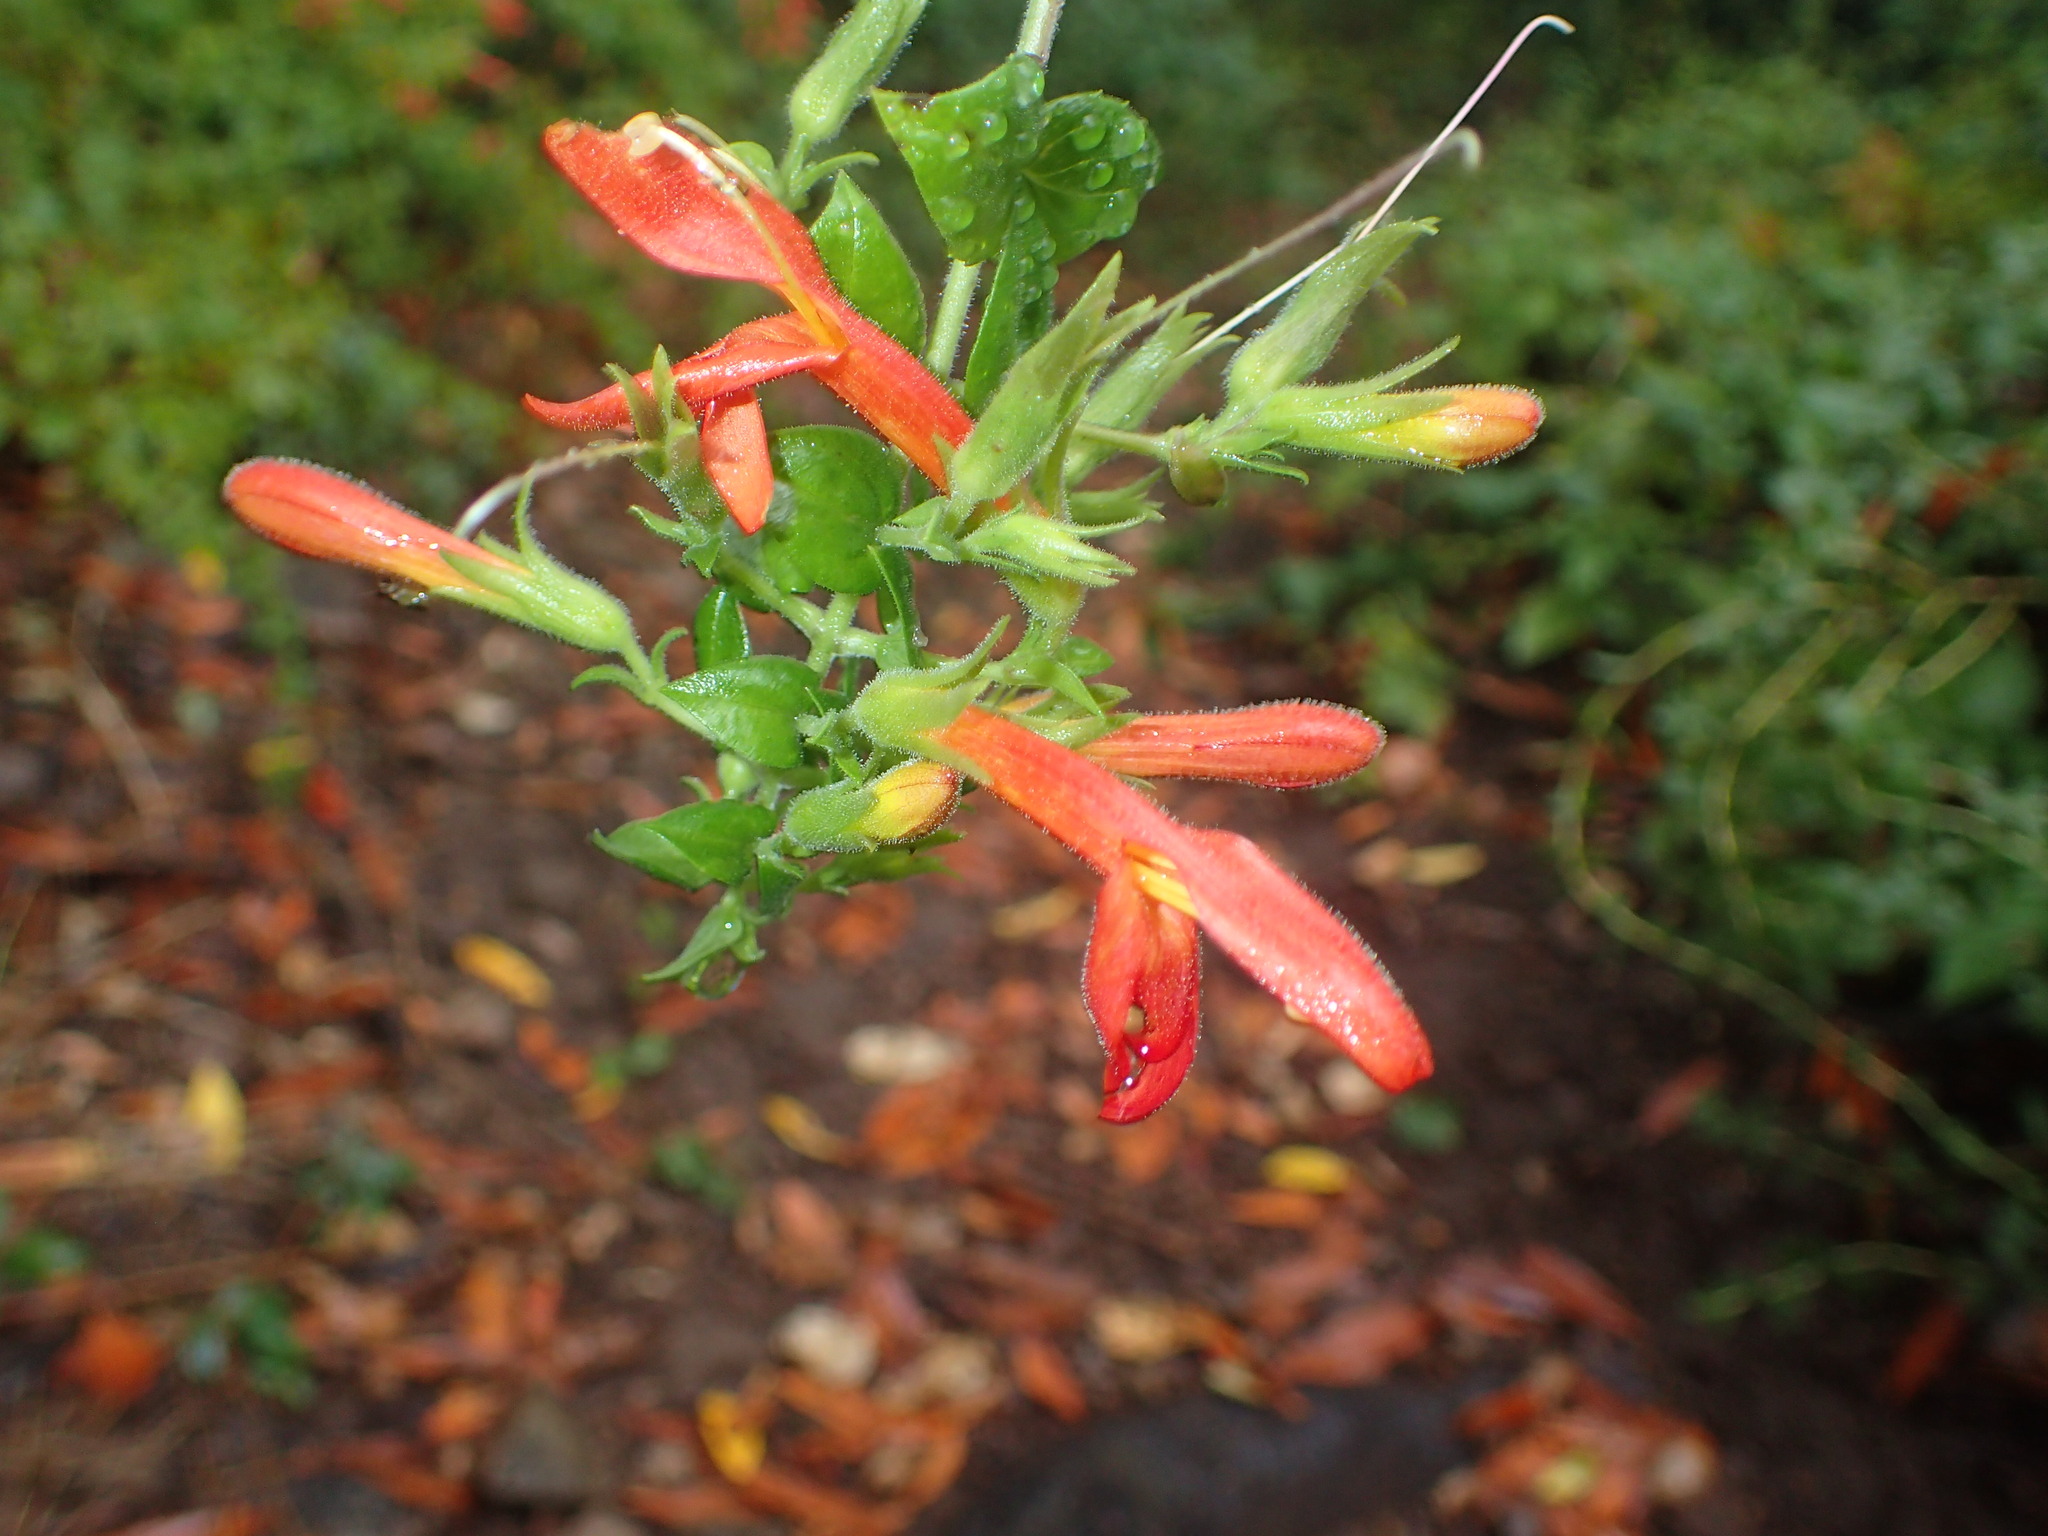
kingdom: Plantae
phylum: Tracheophyta
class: Magnoliopsida
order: Lamiales
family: Plantaginaceae
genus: Keckiella
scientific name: Keckiella cordifolia
